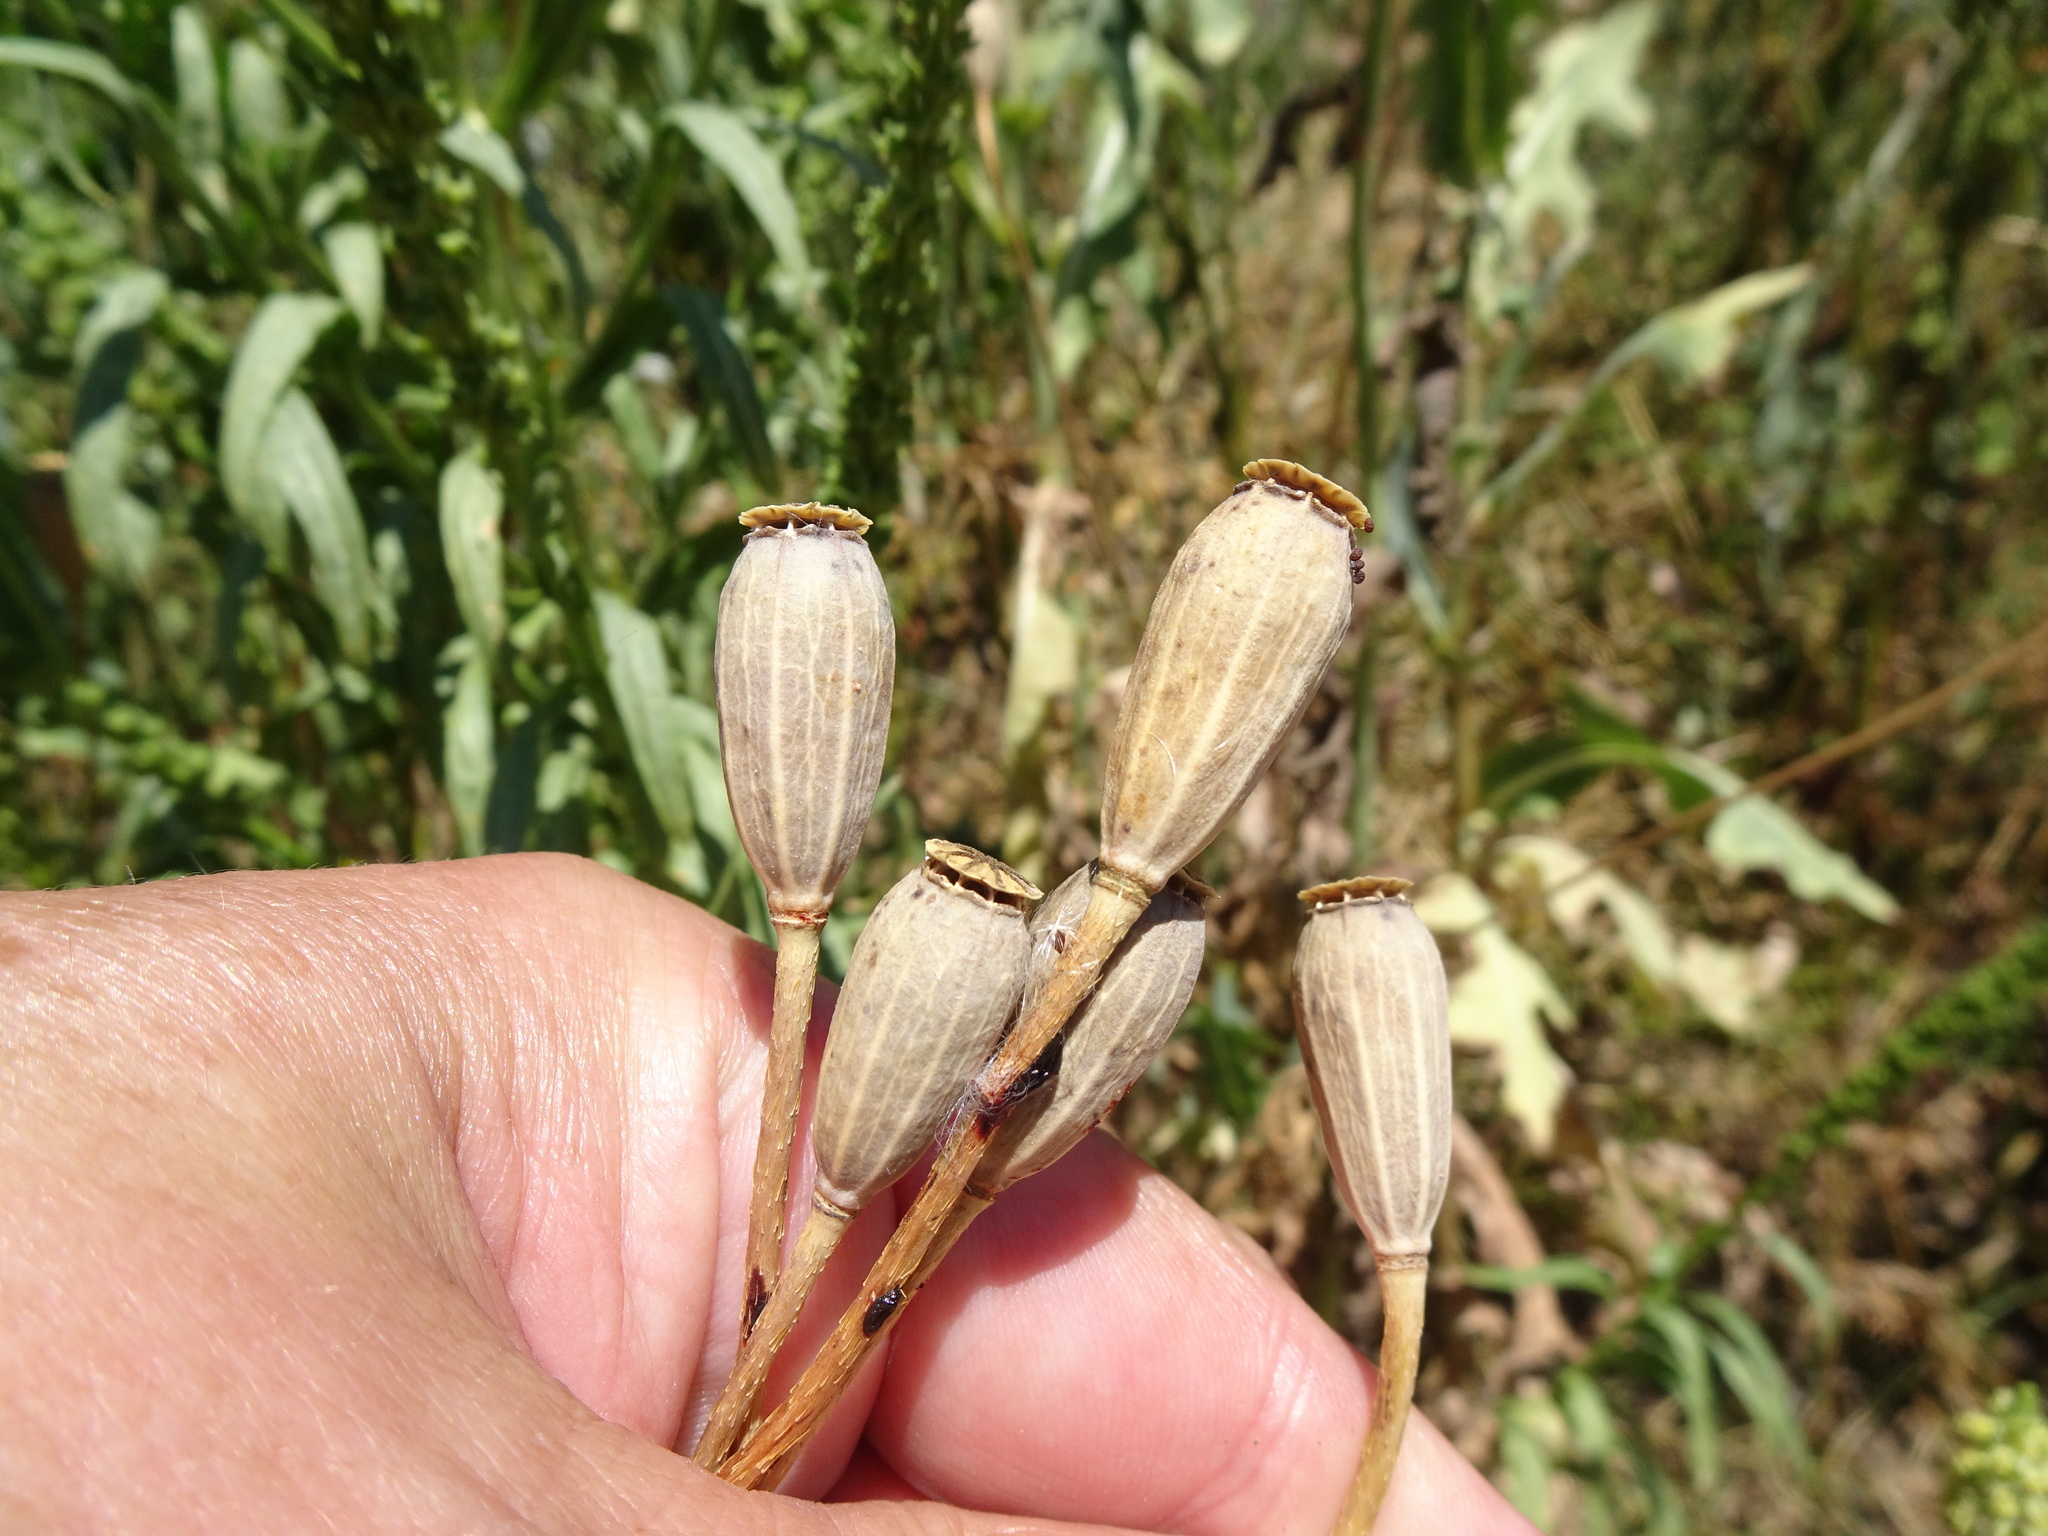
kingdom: Plantae
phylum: Tracheophyta
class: Magnoliopsida
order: Ranunculales
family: Papaveraceae
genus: Papaver
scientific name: Papaver dubium
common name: Long-headed poppy
